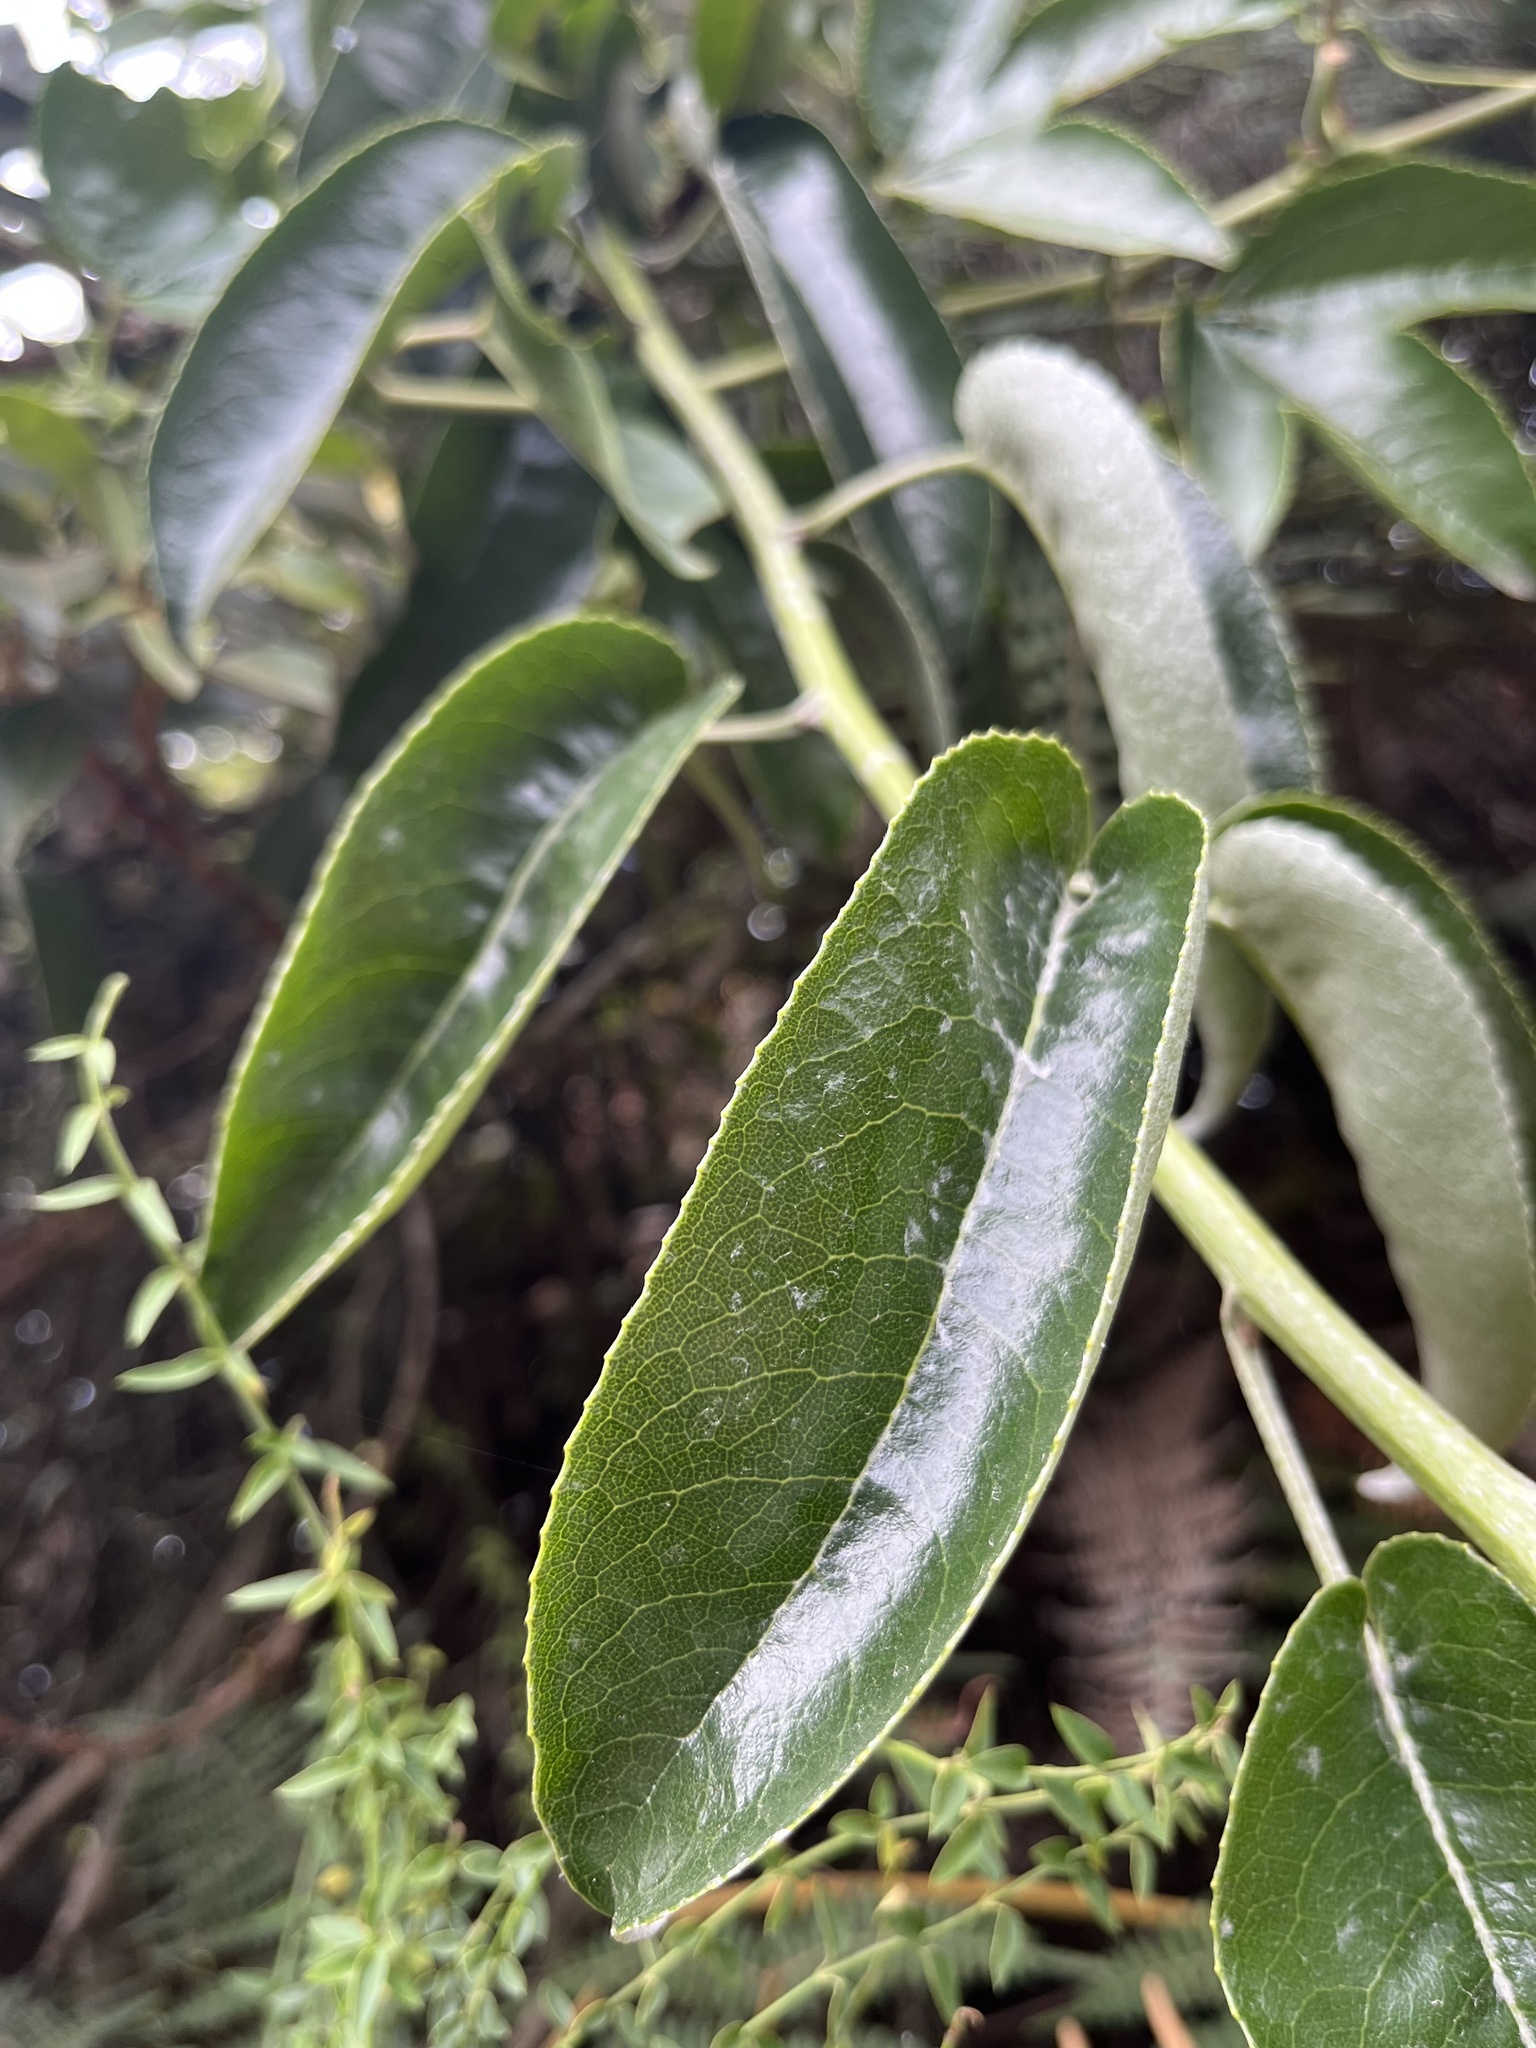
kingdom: Plantae
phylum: Tracheophyta
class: Magnoliopsida
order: Asterales
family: Asteraceae
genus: Dendrophorbium
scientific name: Dendrophorbium americanum
